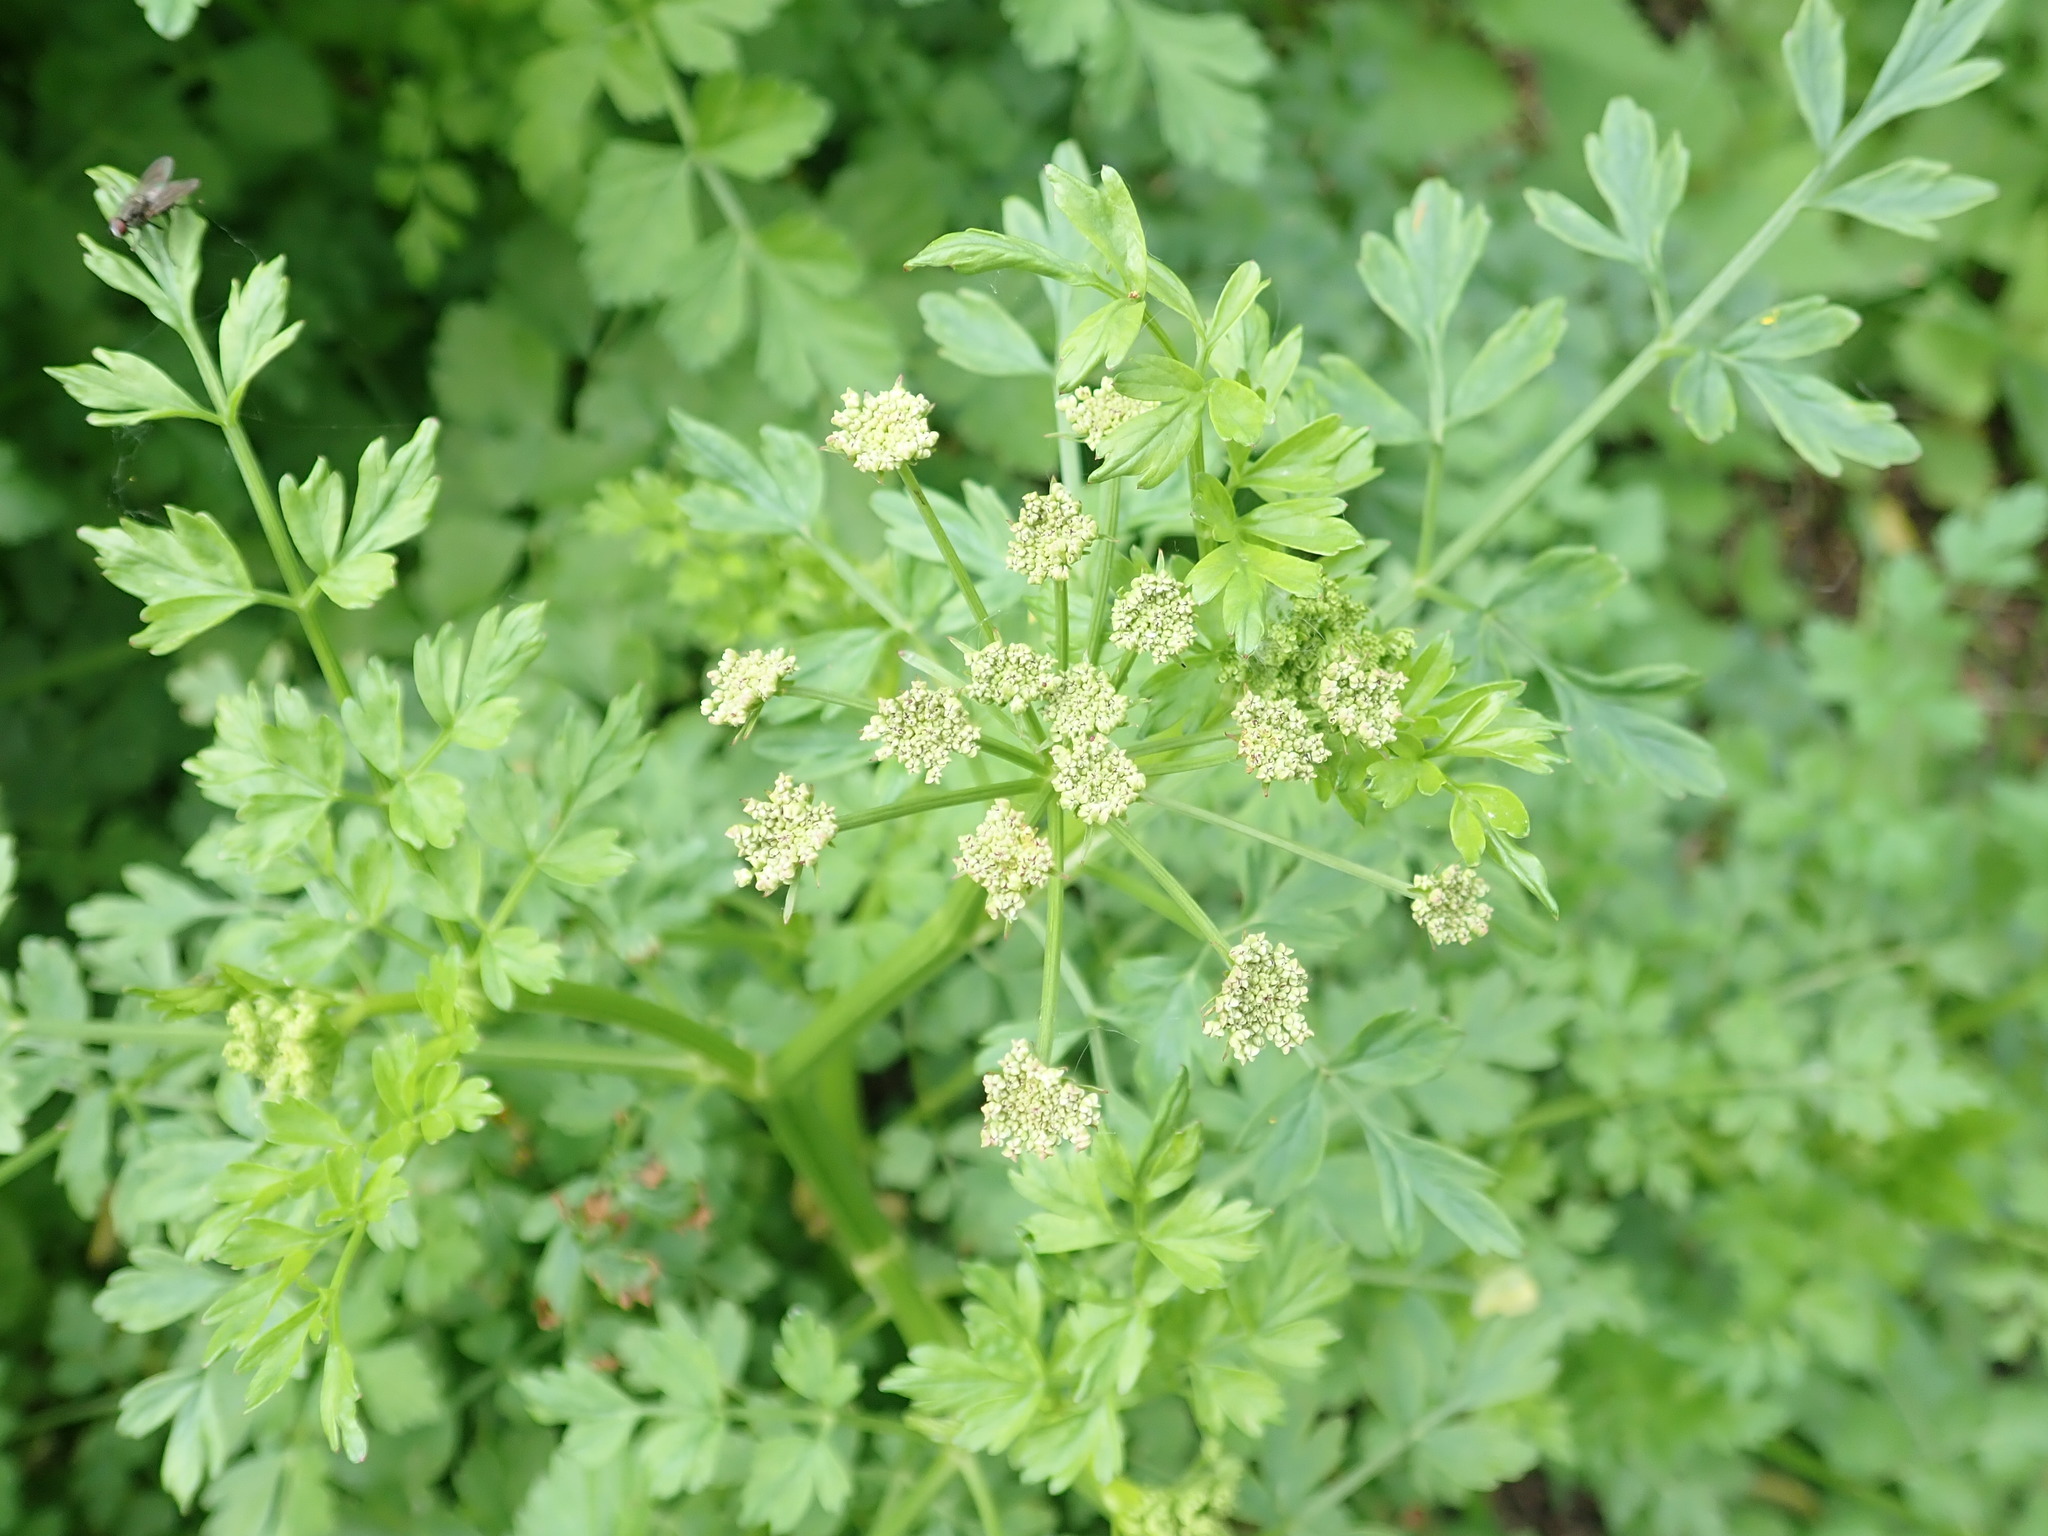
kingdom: Plantae
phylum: Tracheophyta
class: Magnoliopsida
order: Apiales
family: Apiaceae
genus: Oenanthe
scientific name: Oenanthe crocata
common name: Hemlock water-dropwort
